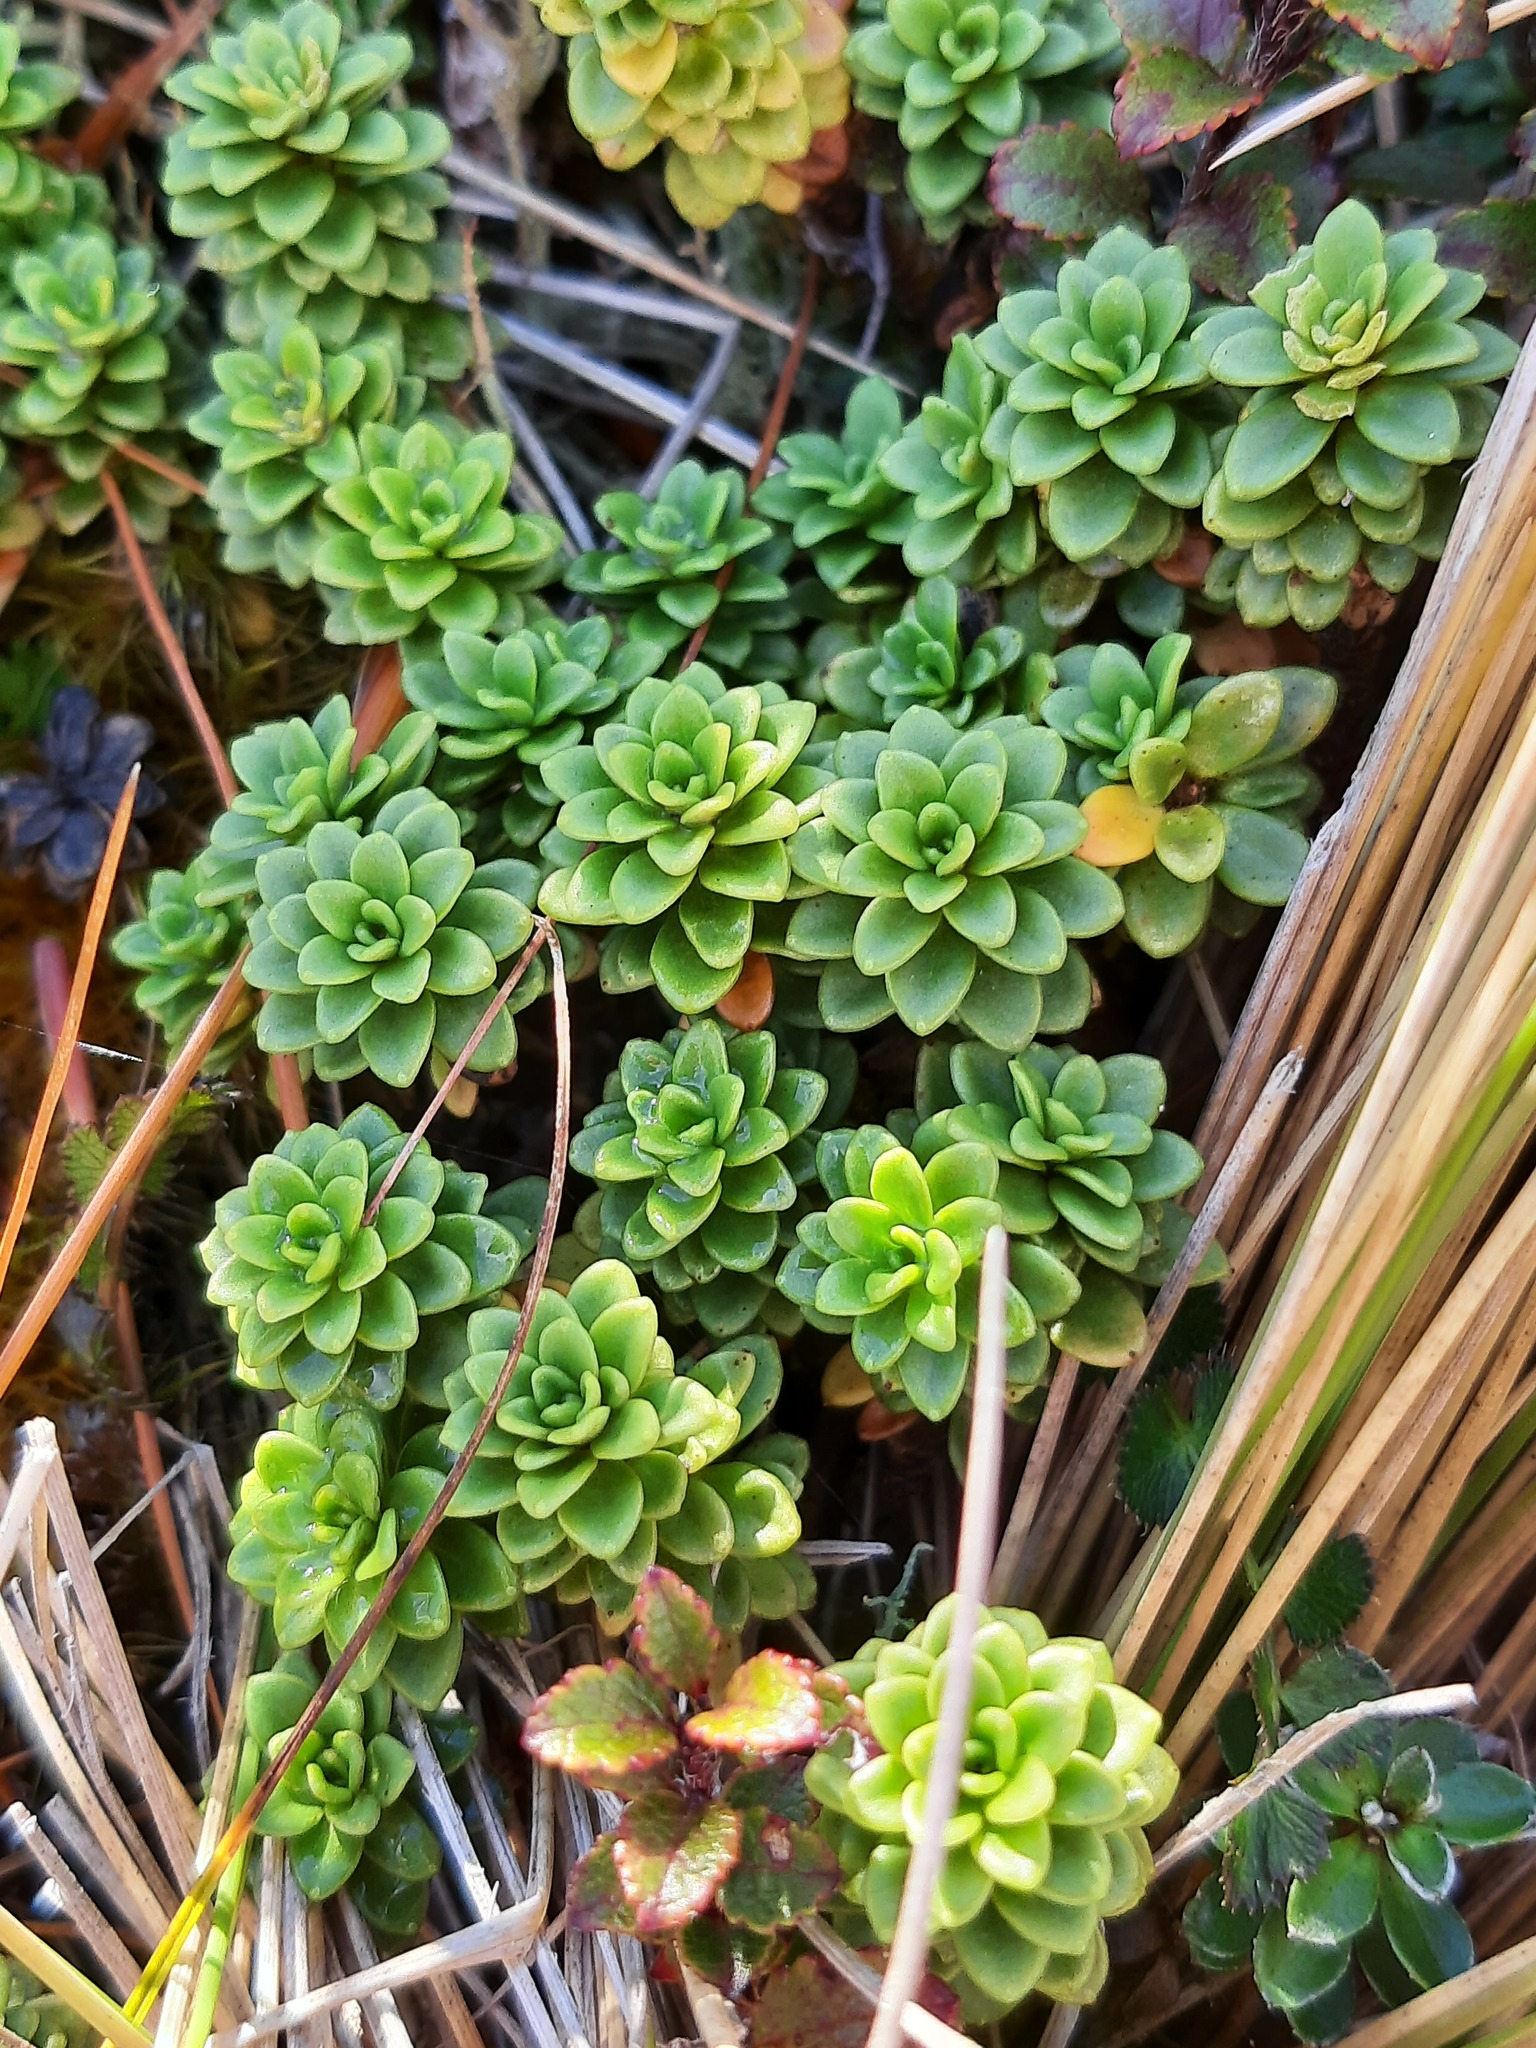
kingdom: Plantae
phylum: Tracheophyta
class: Magnoliopsida
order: Asterales
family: Stylidiaceae
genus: Forstera
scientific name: Forstera tenella
